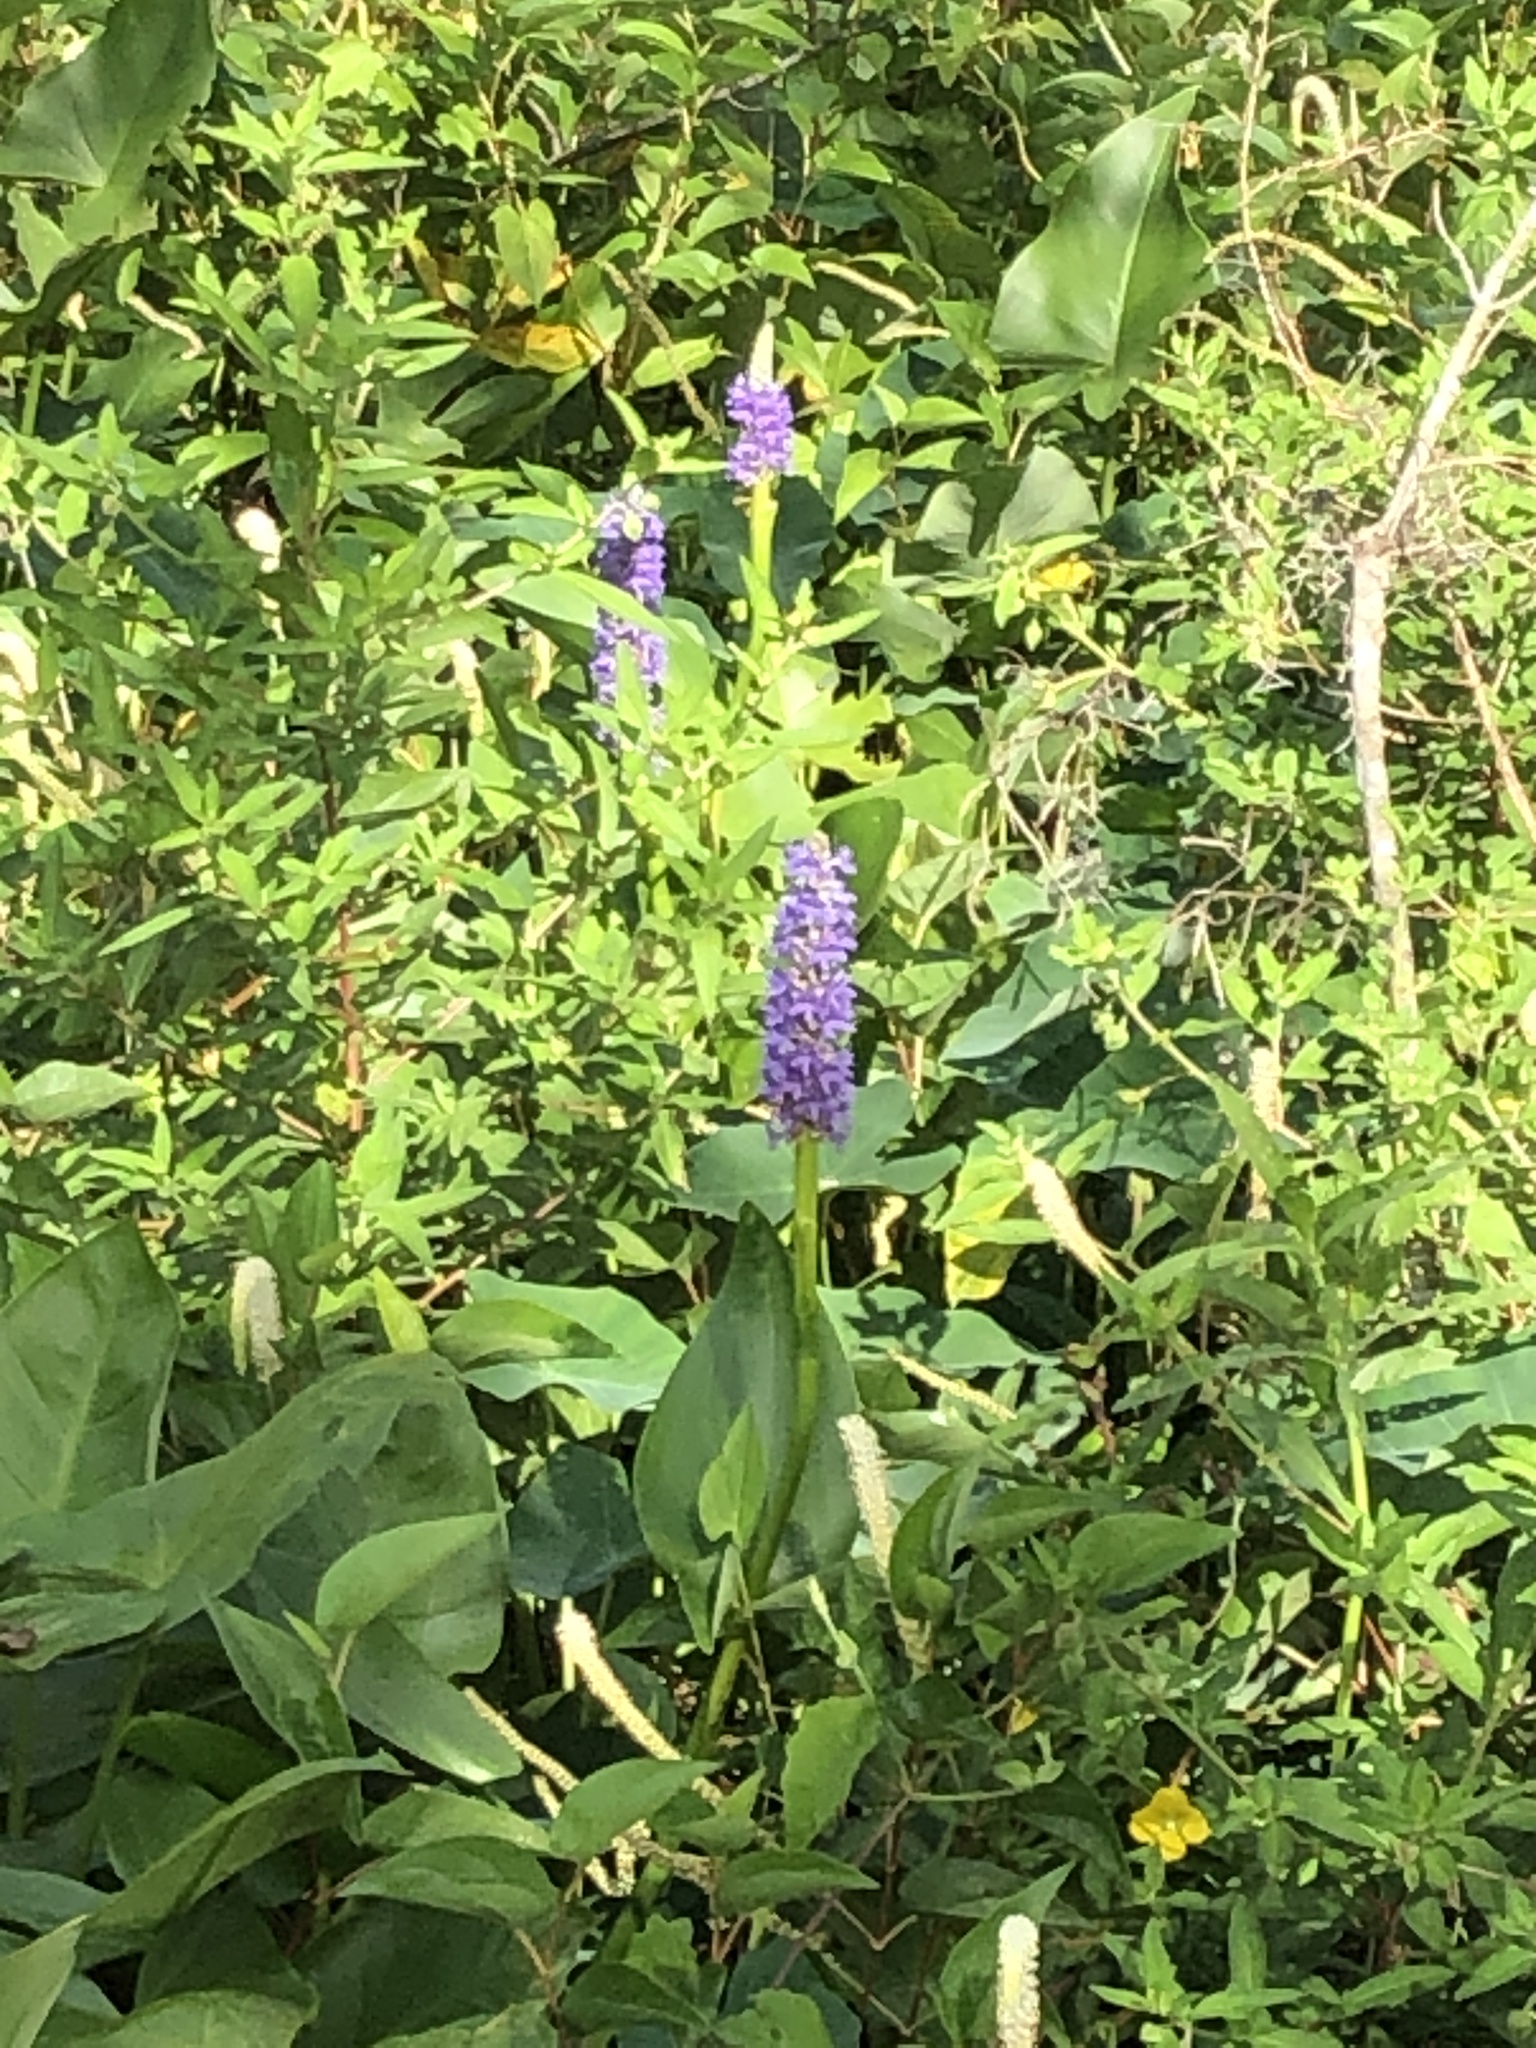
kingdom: Plantae
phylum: Tracheophyta
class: Liliopsida
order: Commelinales
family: Pontederiaceae
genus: Pontederia
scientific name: Pontederia cordata
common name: Pickerelweed
